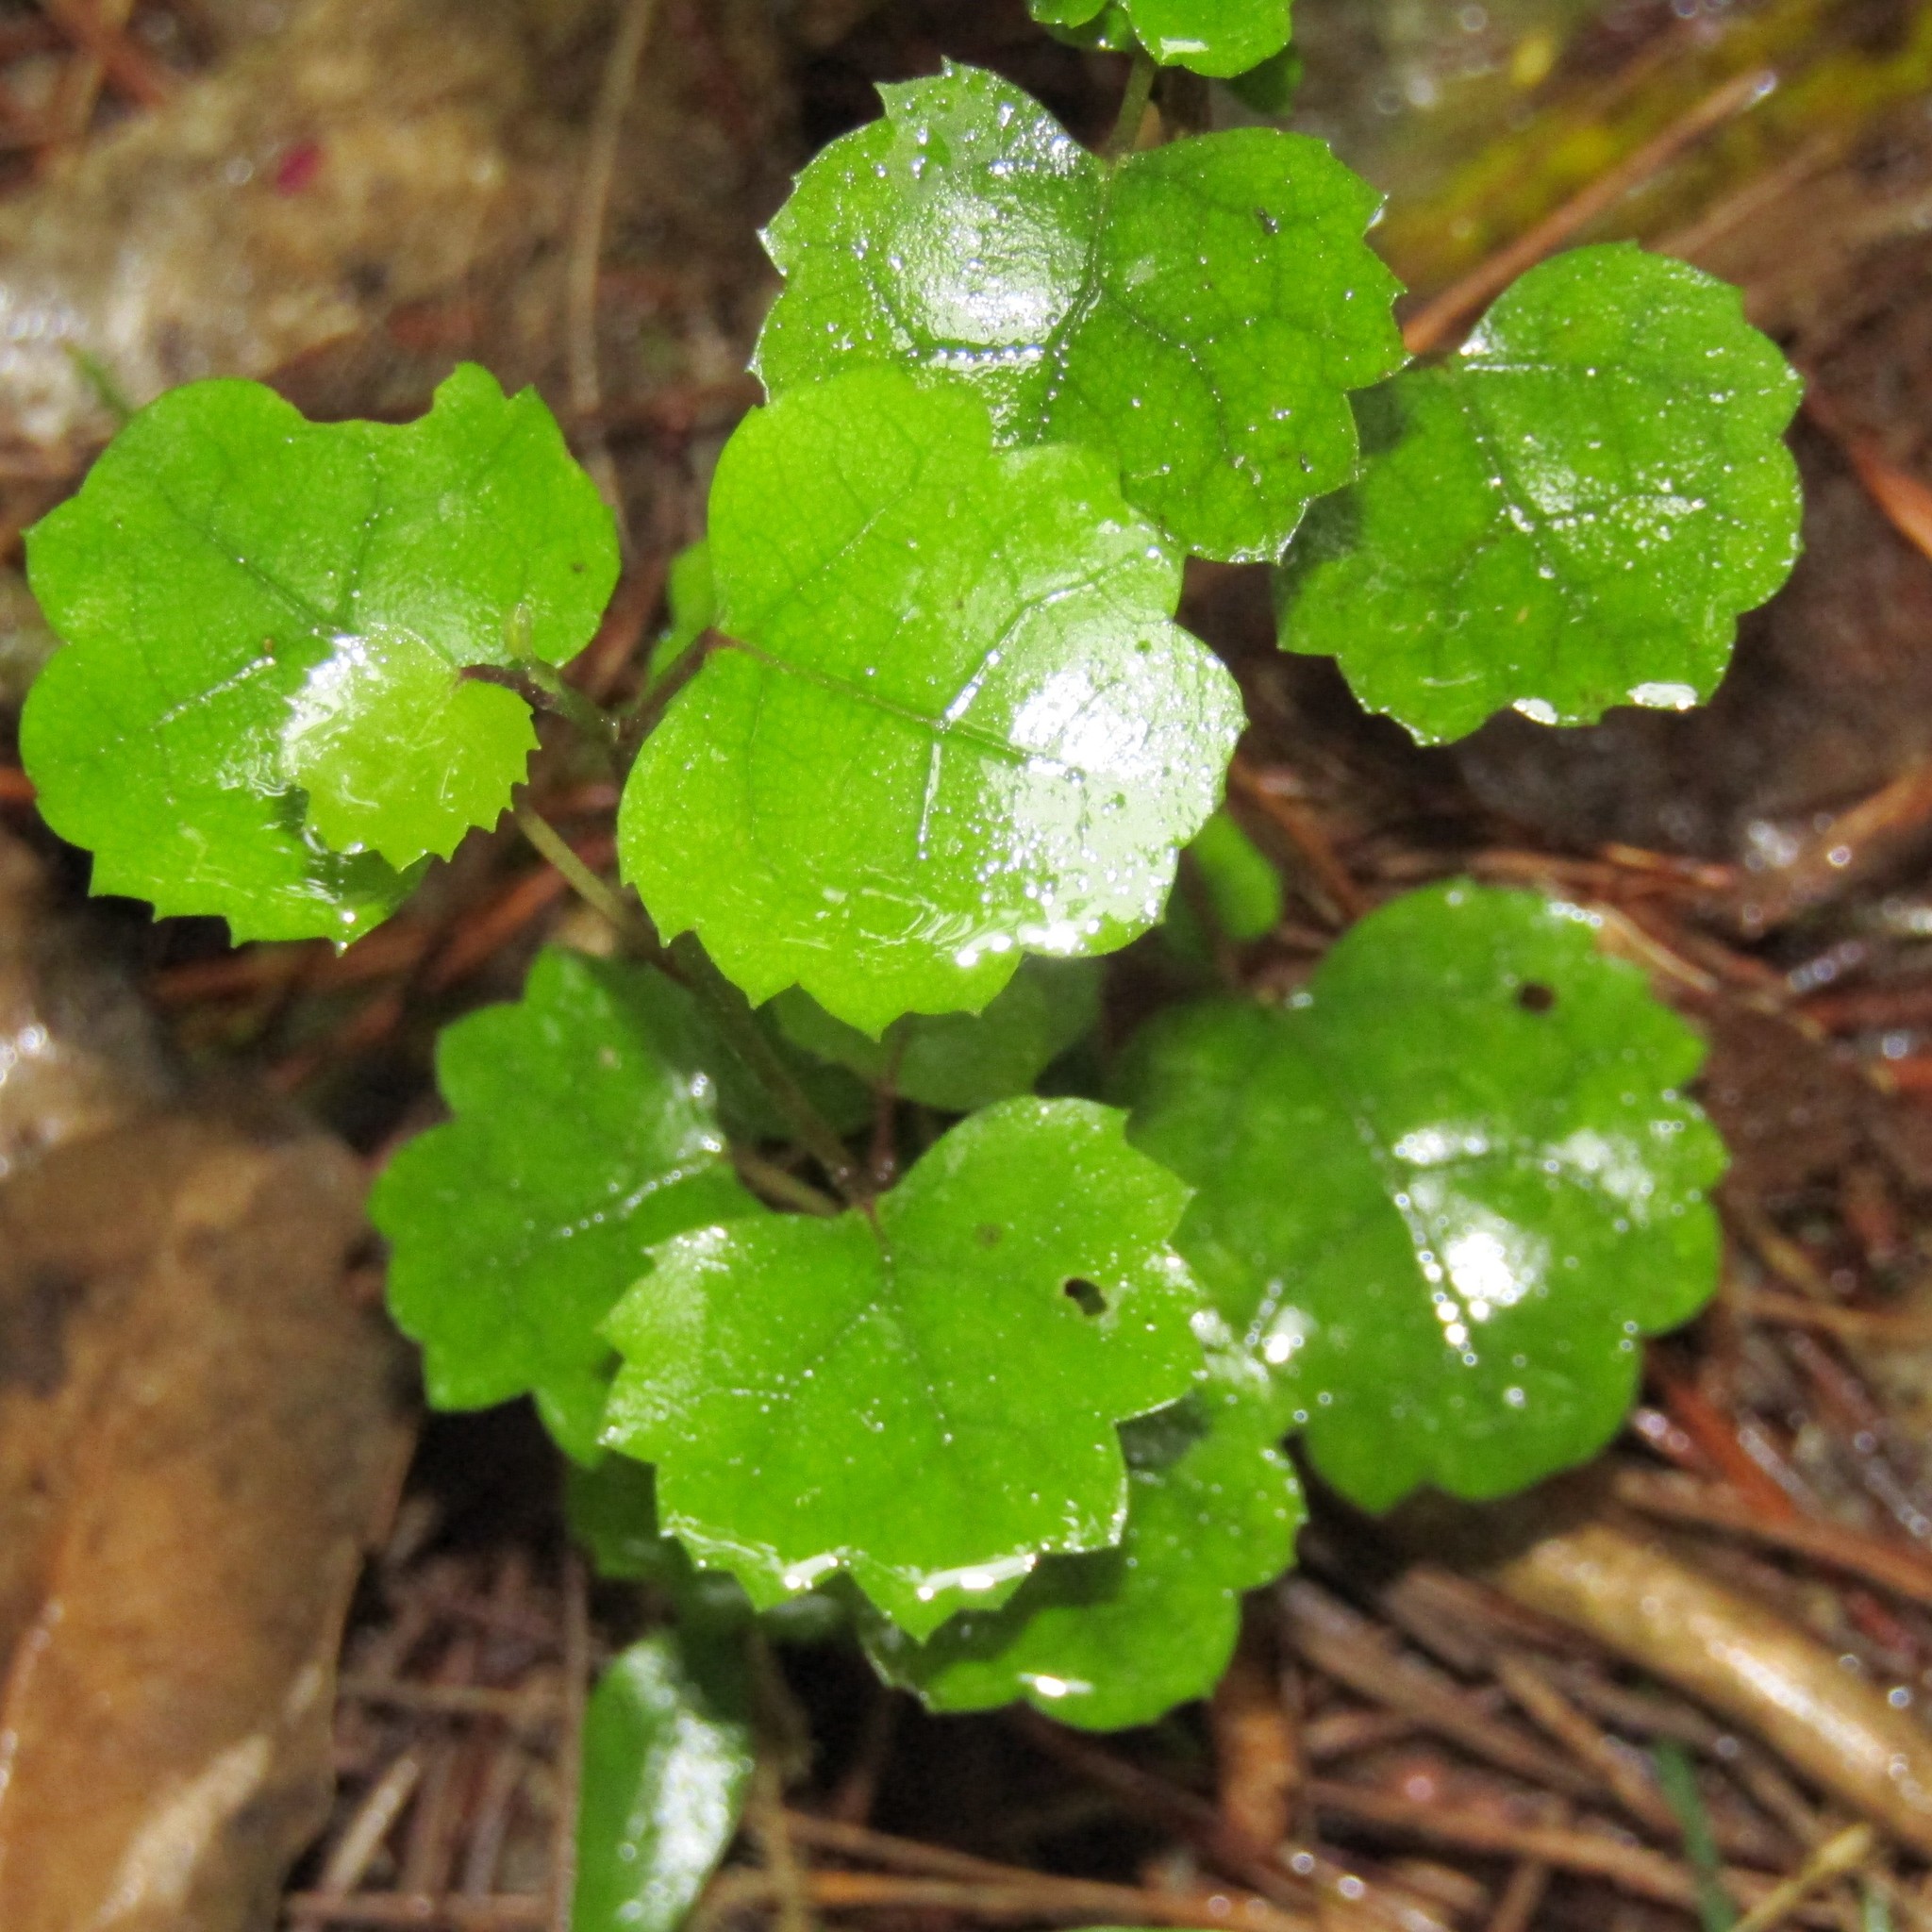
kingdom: Plantae
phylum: Tracheophyta
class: Magnoliopsida
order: Malvales
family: Malvaceae
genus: Hoheria
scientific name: Hoheria populnea
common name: Lacebark
